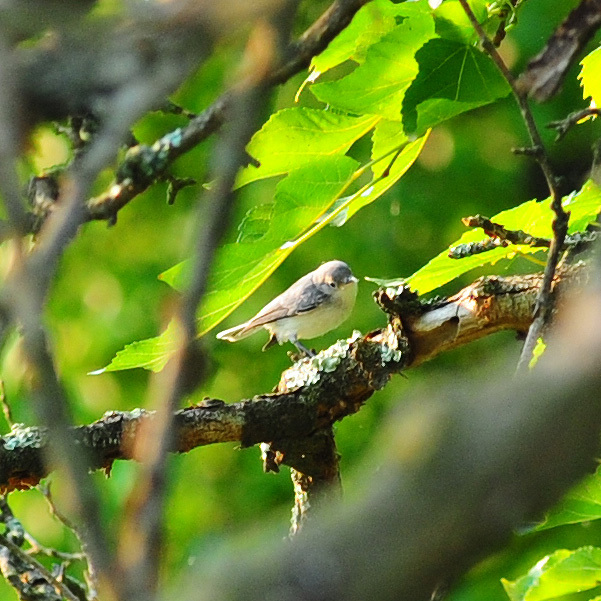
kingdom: Animalia
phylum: Chordata
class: Aves
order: Passeriformes
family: Polioptilidae
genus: Polioptila
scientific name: Polioptila caerulea
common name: Blue-gray gnatcatcher
